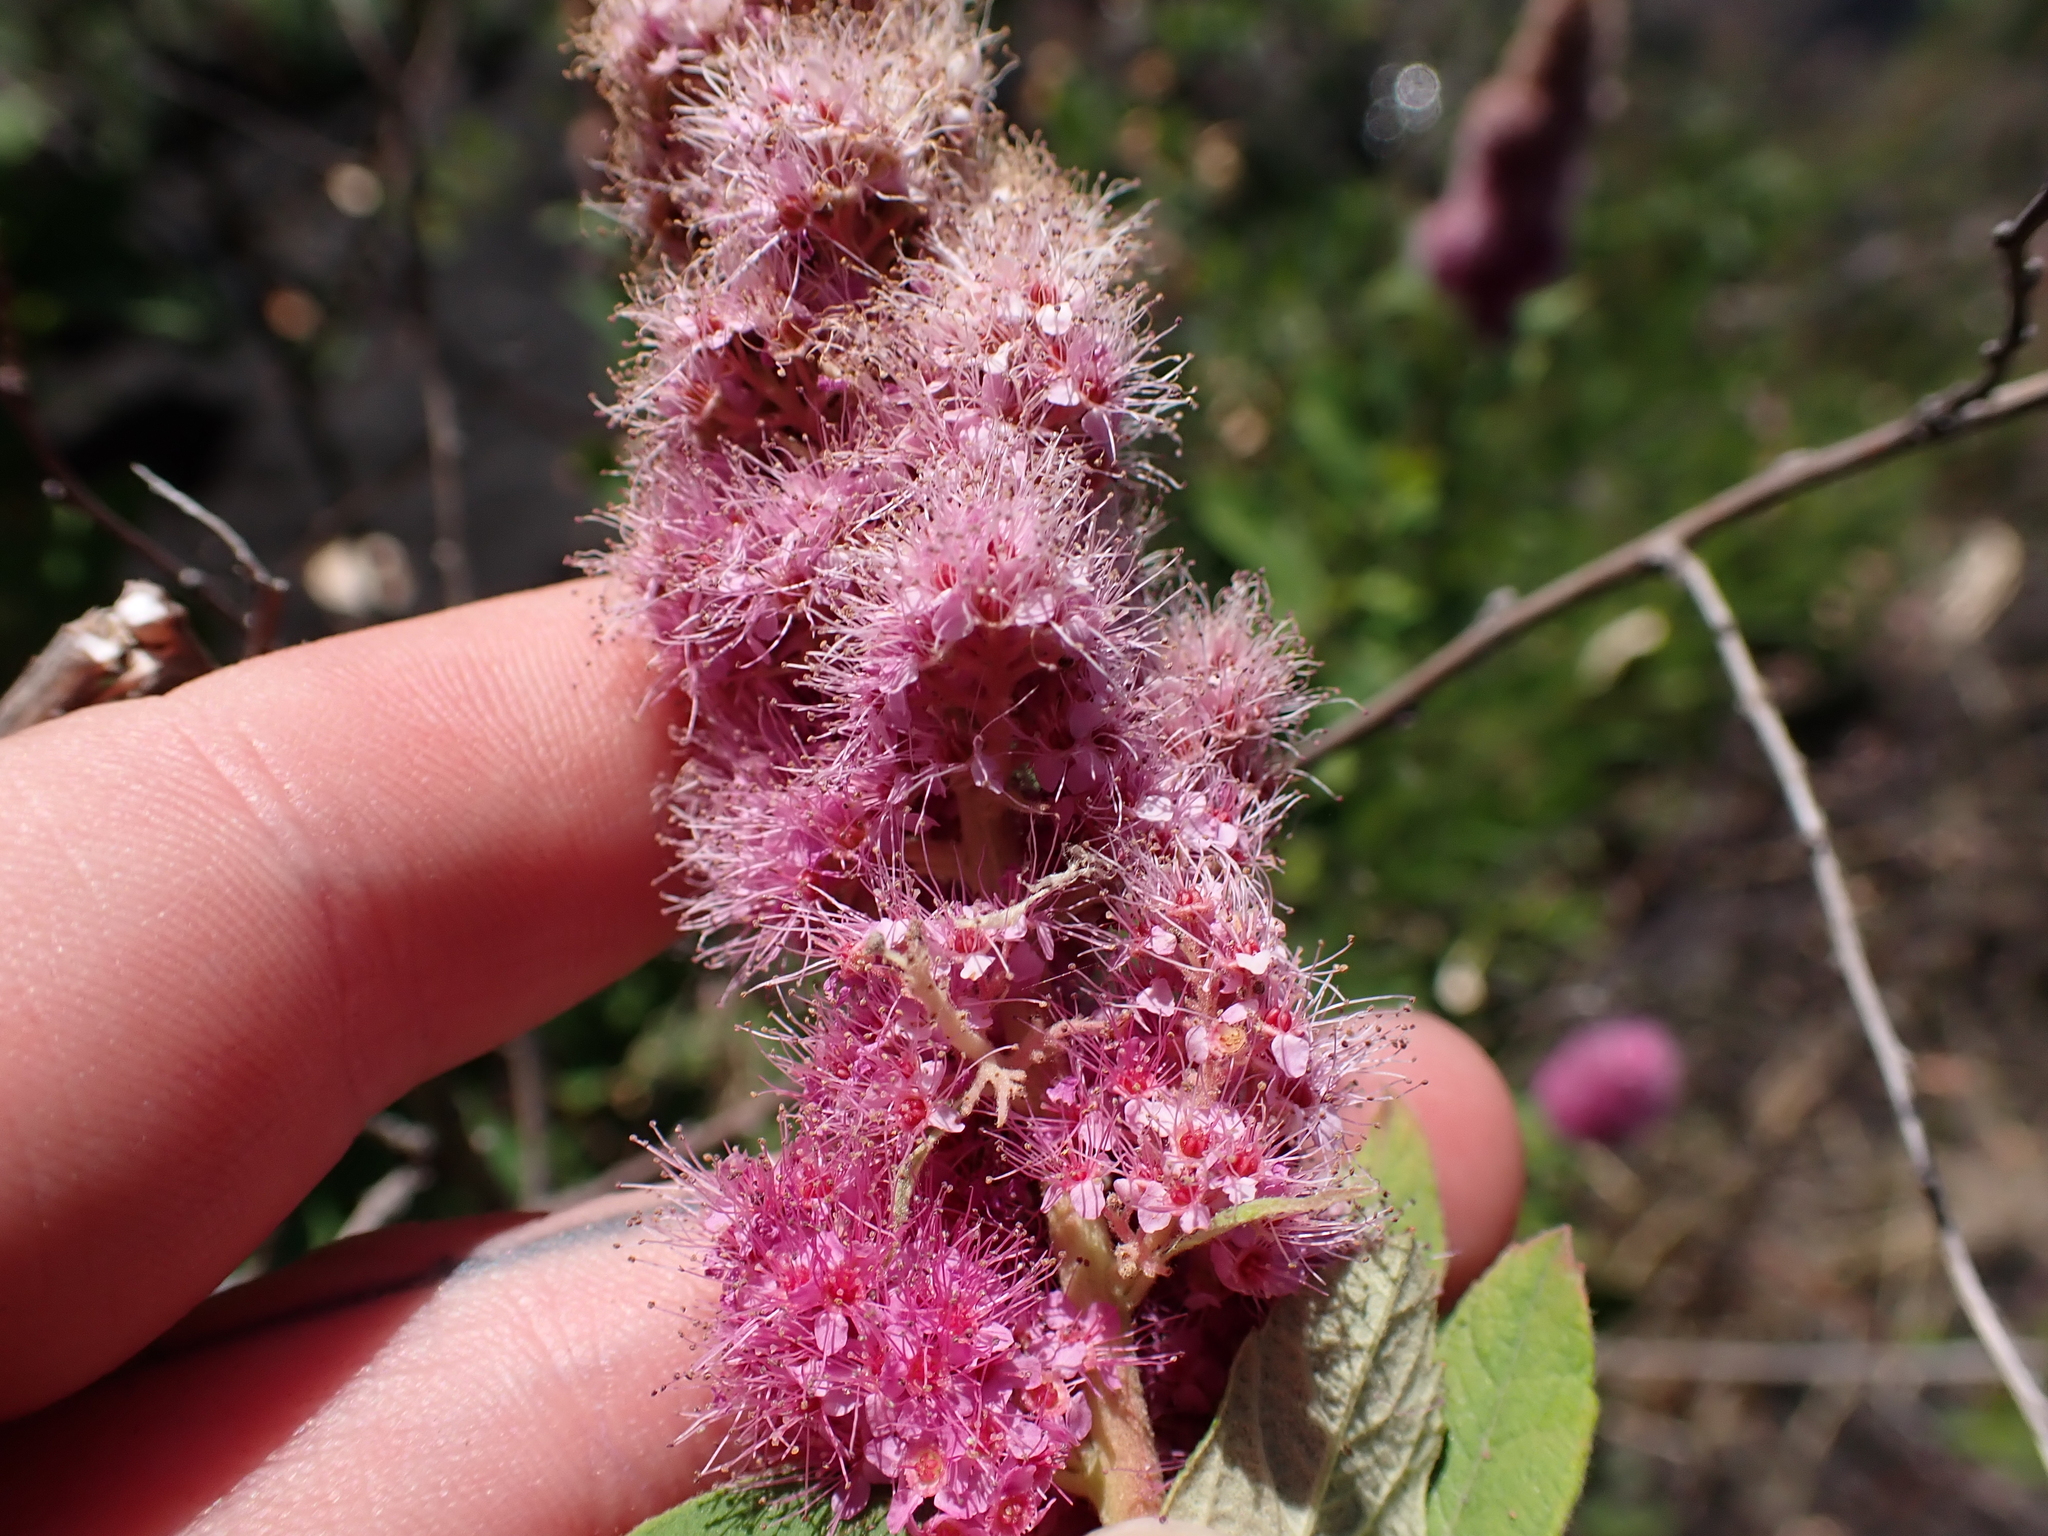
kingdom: Plantae
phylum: Tracheophyta
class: Magnoliopsida
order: Rosales
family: Rosaceae
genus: Spiraea
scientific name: Spiraea douglasii
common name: Steeplebush
